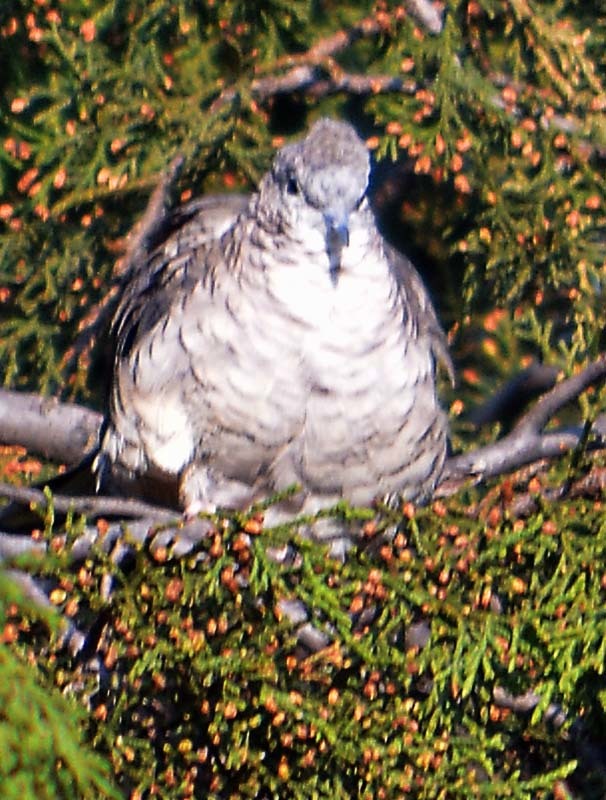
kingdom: Animalia
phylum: Chordata
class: Aves
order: Columbiformes
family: Columbidae
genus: Columbina
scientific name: Columbina inca
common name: Inca dove
